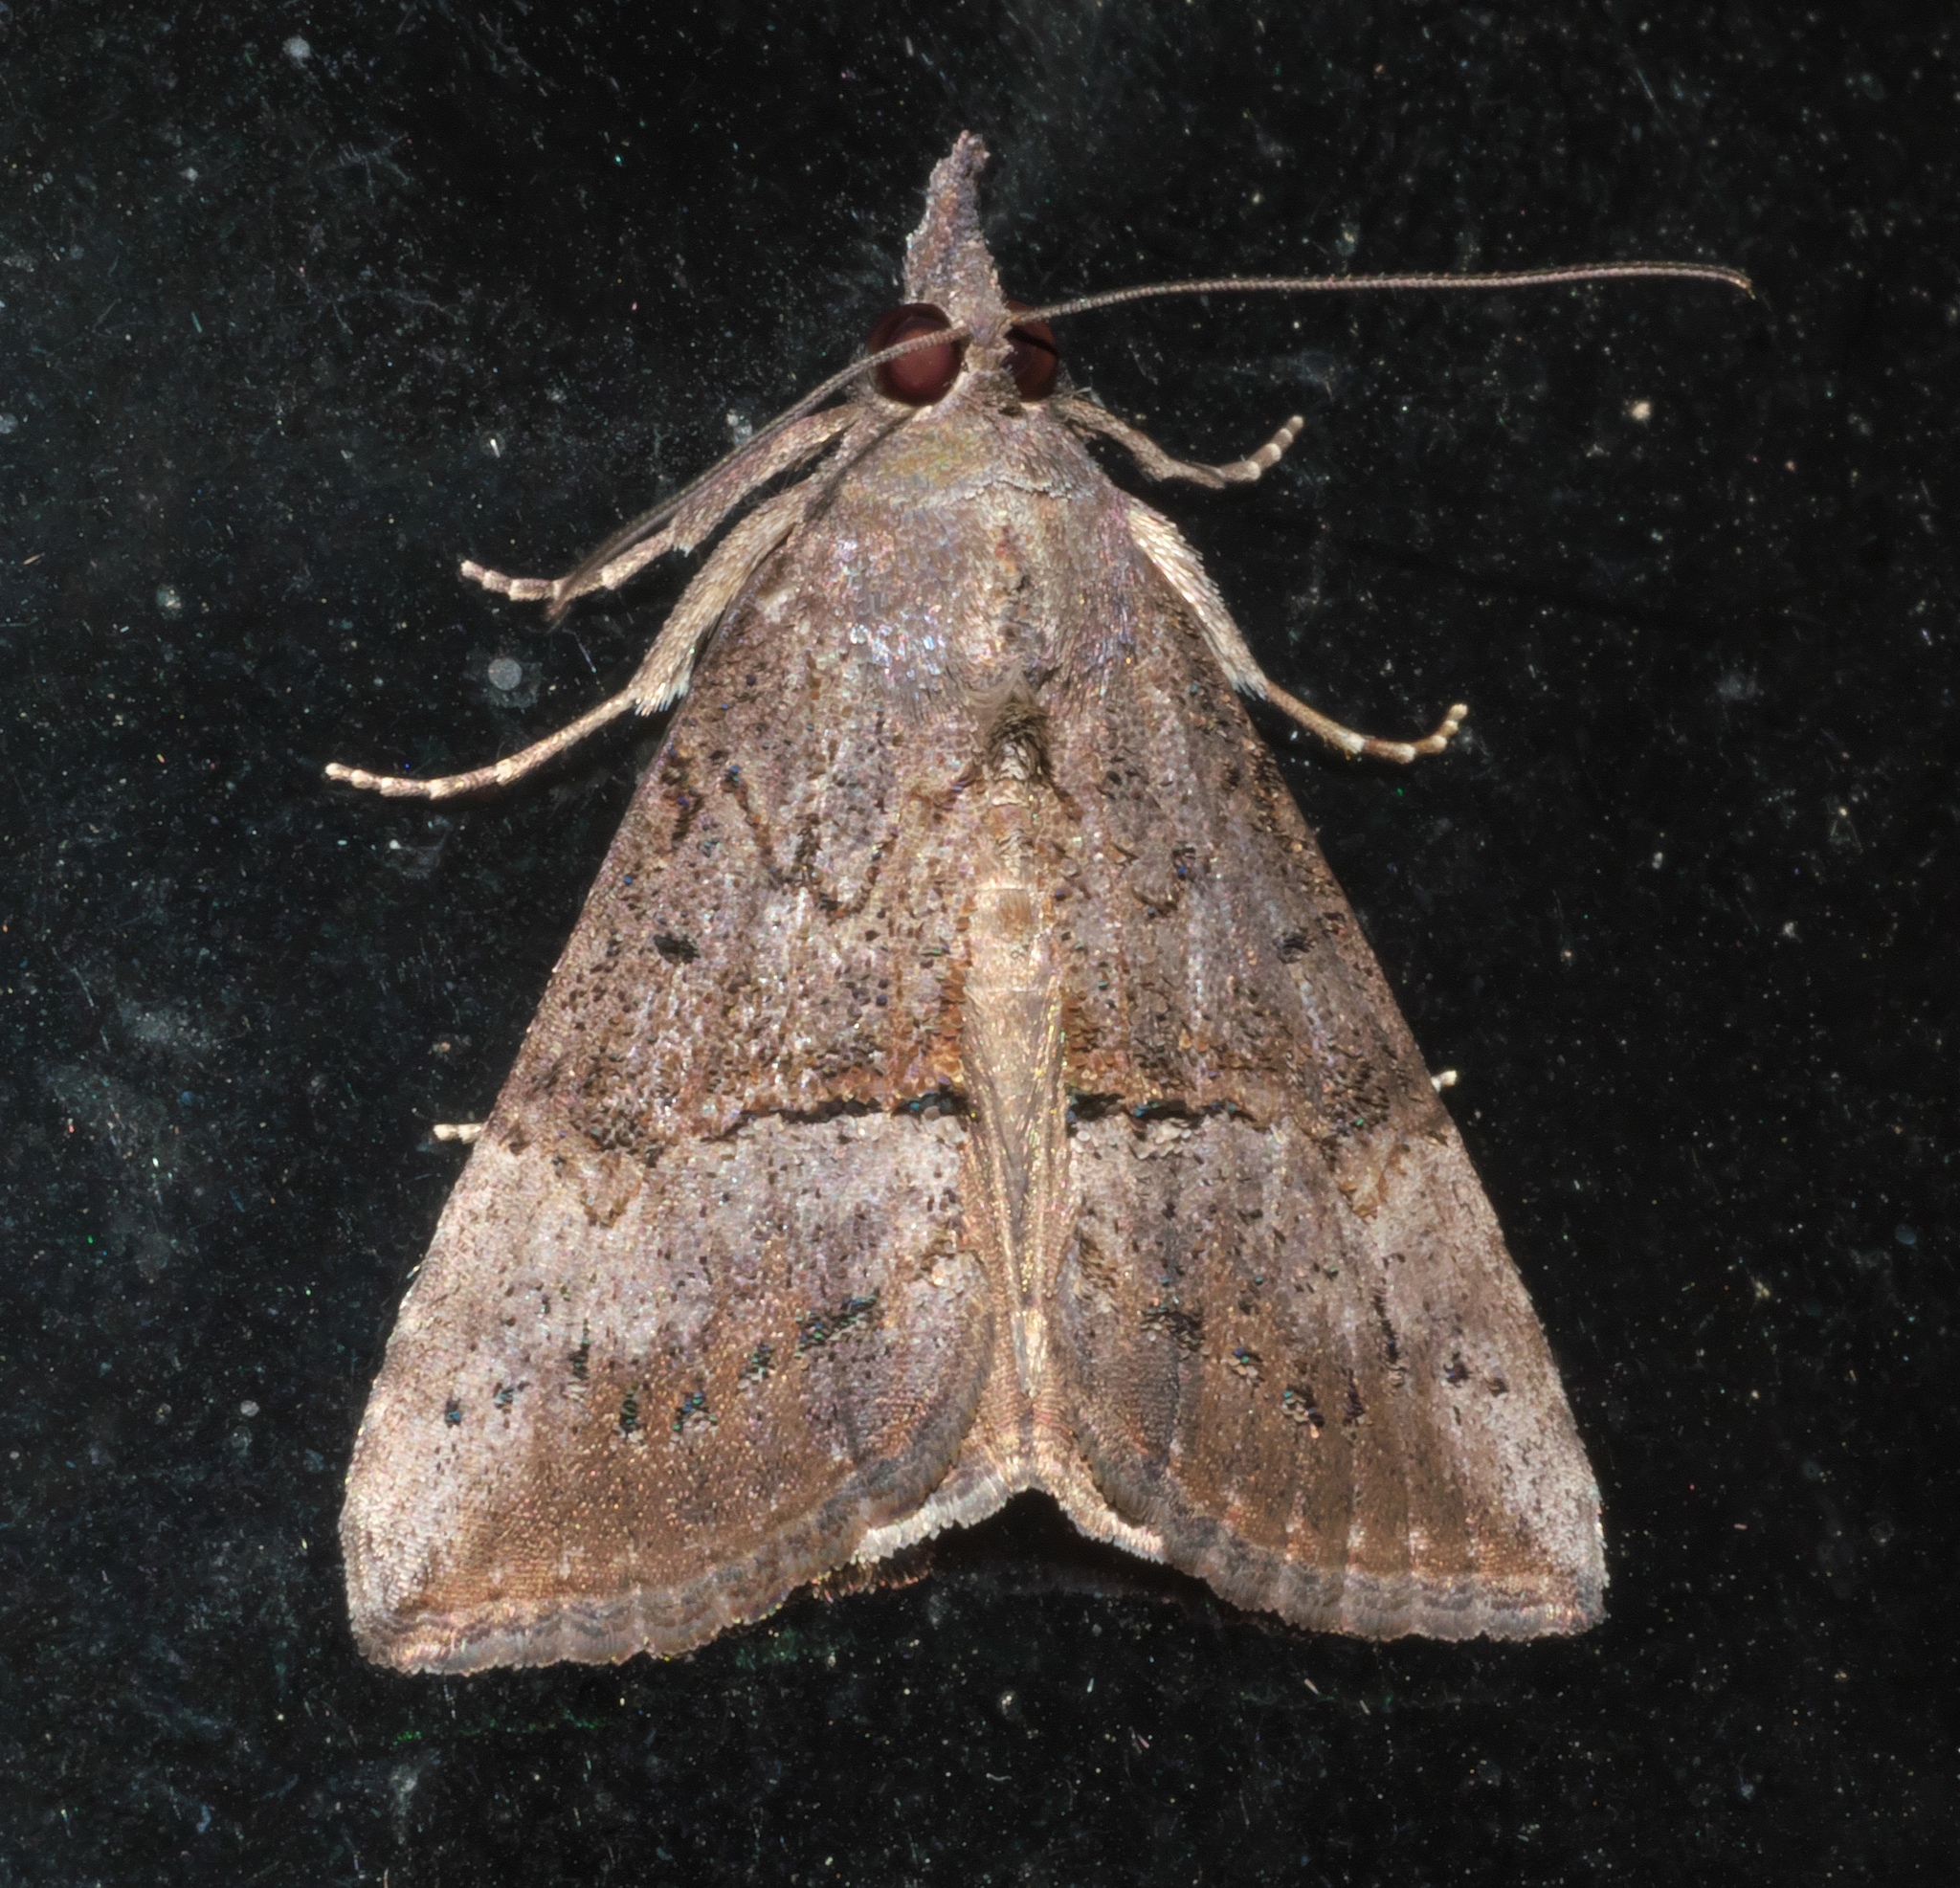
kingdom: Animalia
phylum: Arthropoda
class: Insecta
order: Lepidoptera
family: Erebidae
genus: Hypena
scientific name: Hypena scabra
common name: Green cloverworm
